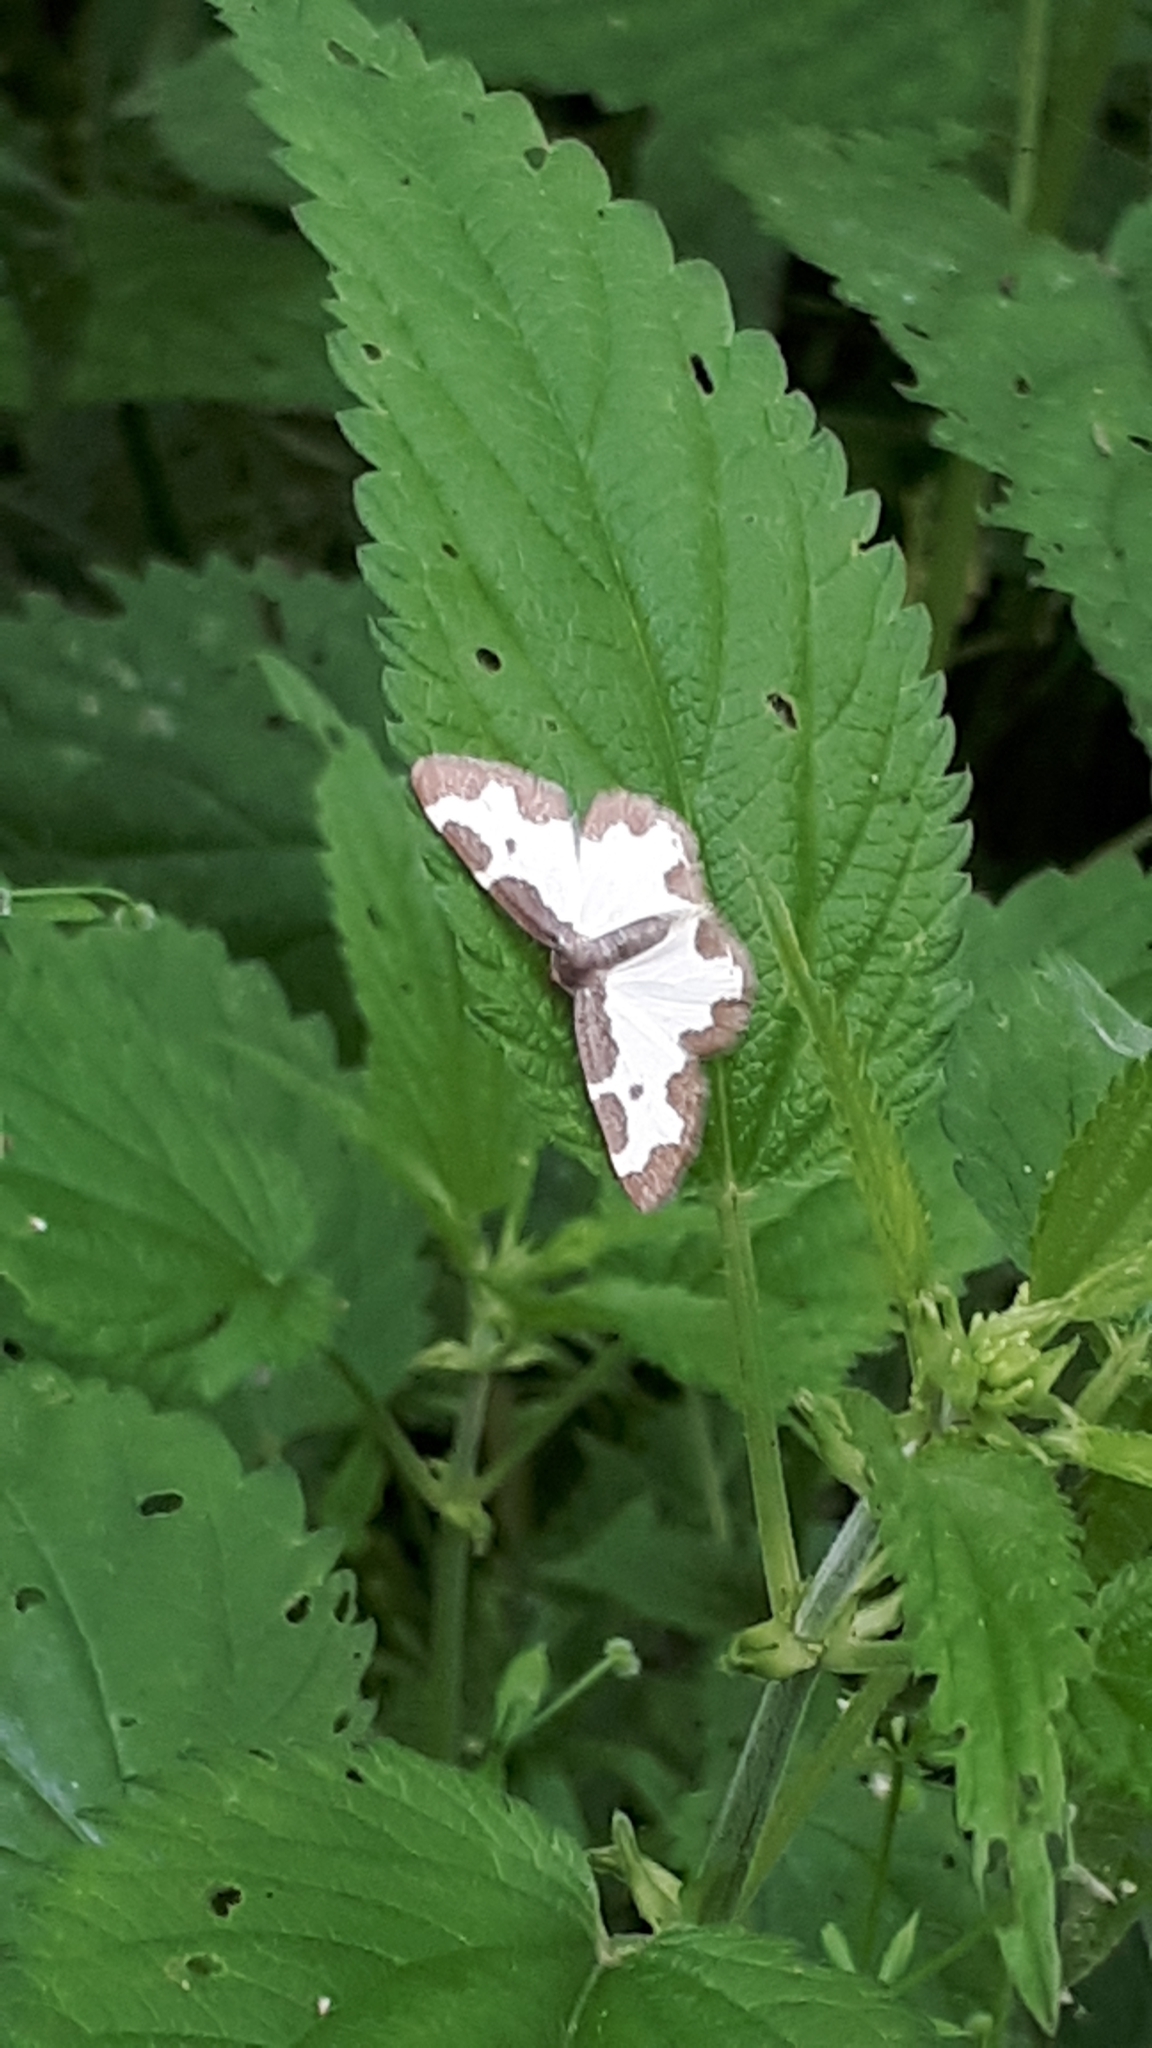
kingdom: Animalia
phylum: Arthropoda
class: Insecta
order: Lepidoptera
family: Geometridae
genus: Lomaspilis
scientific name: Lomaspilis marginata
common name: Clouded border
